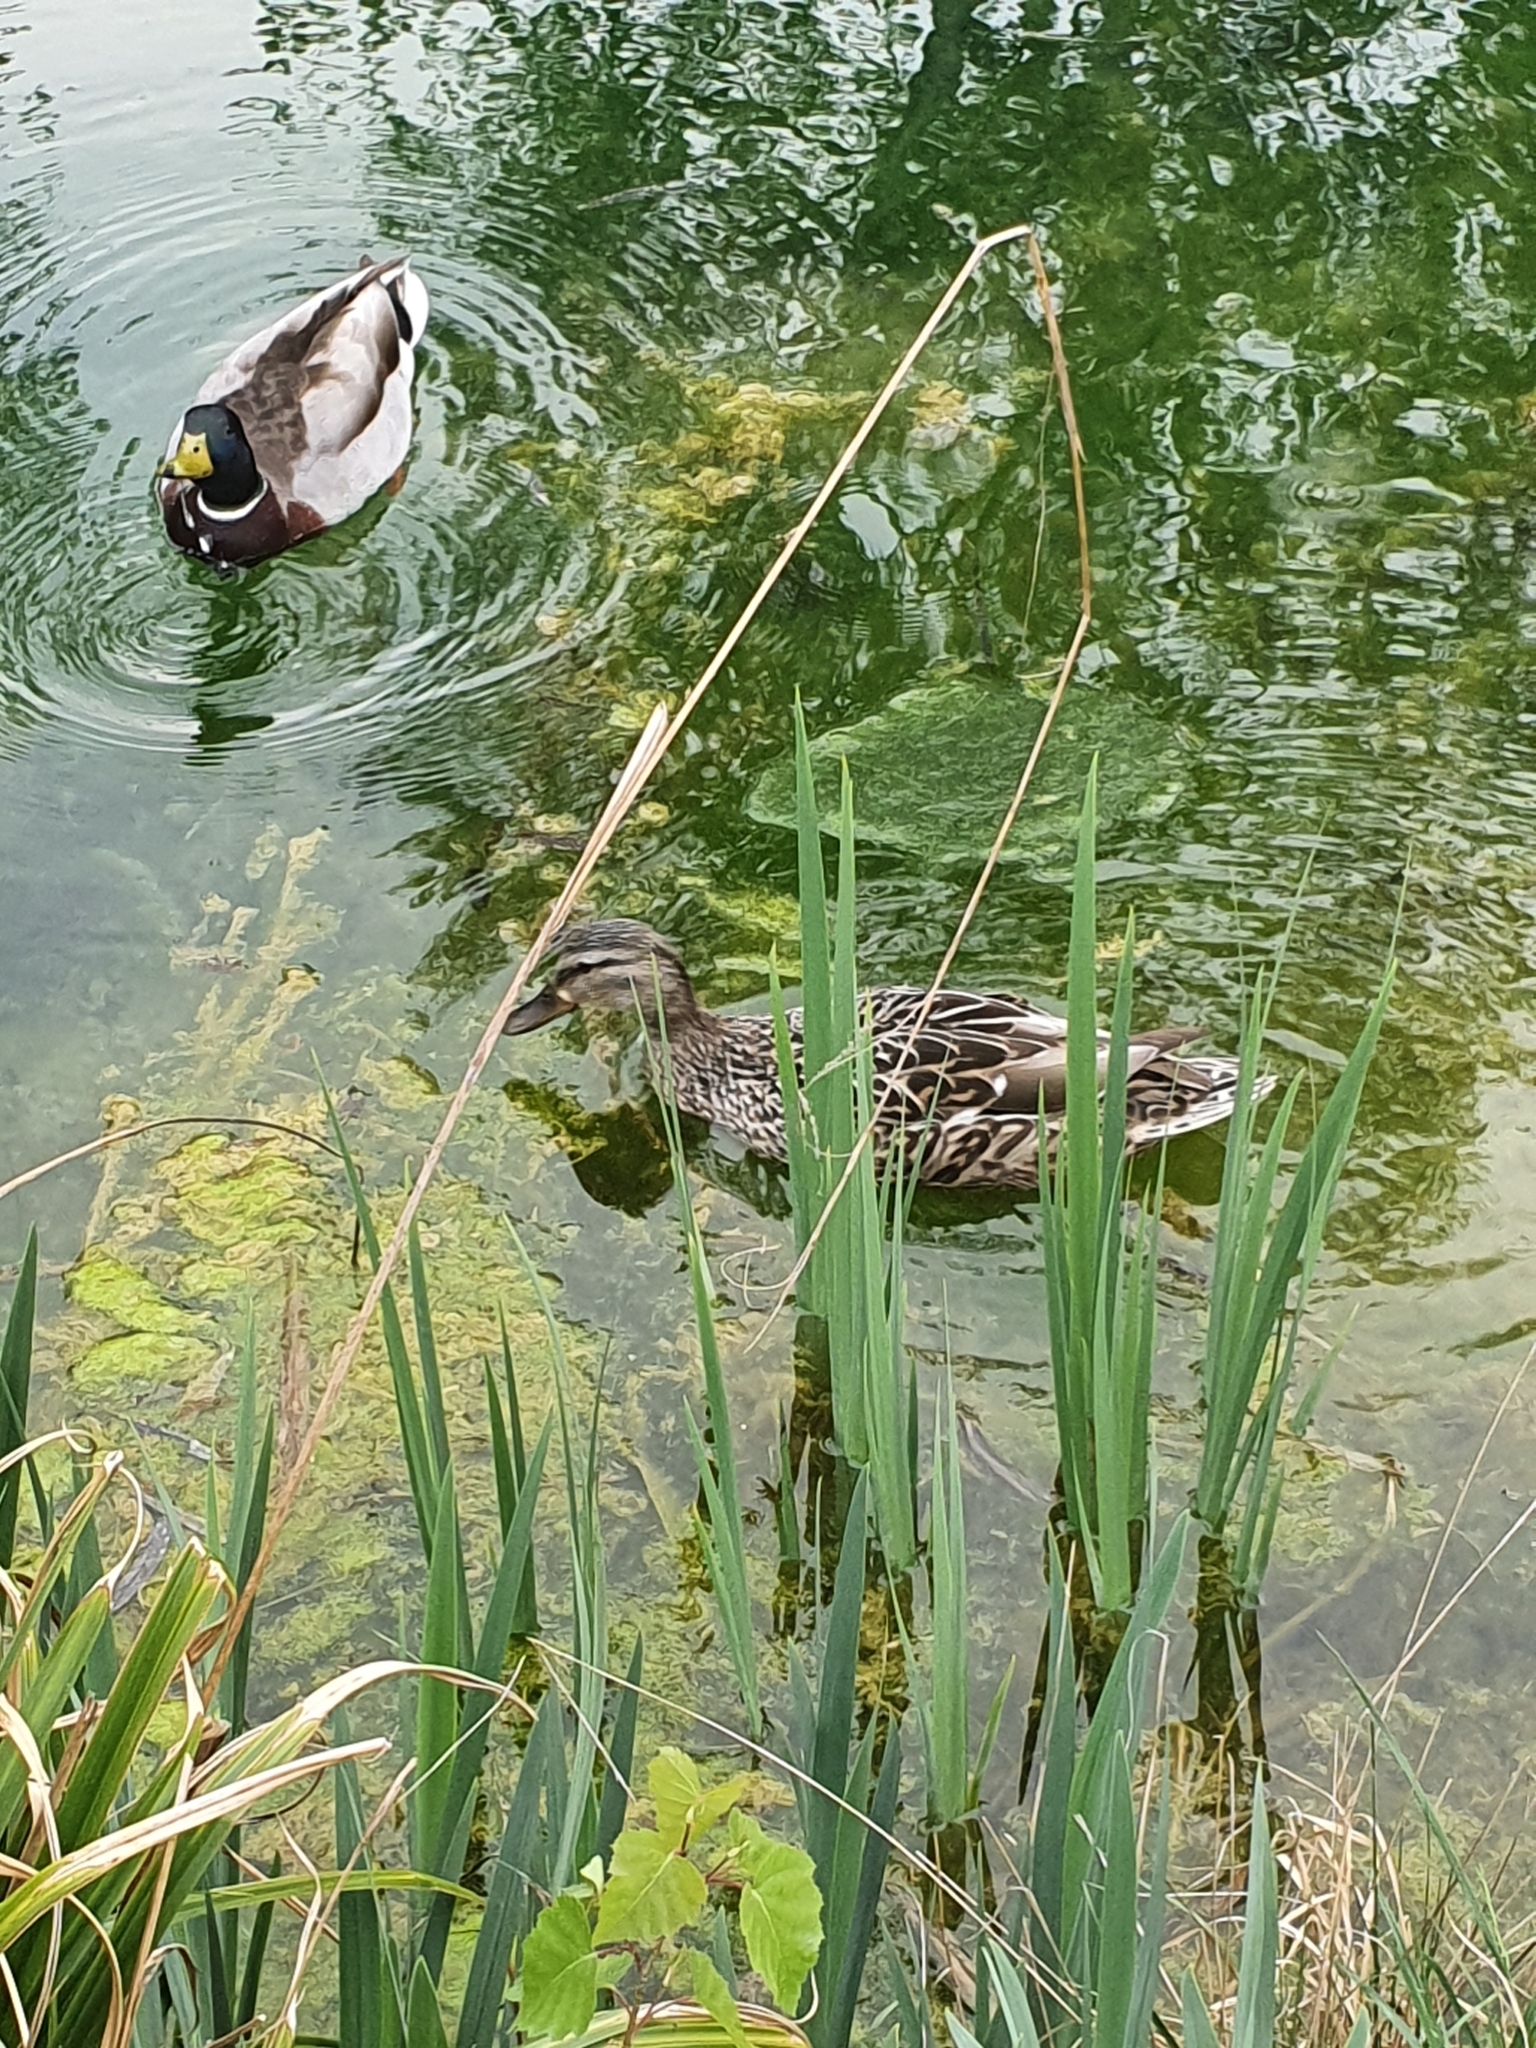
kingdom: Animalia
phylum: Chordata
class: Aves
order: Anseriformes
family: Anatidae
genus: Anas
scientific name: Anas platyrhynchos
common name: Mallard
